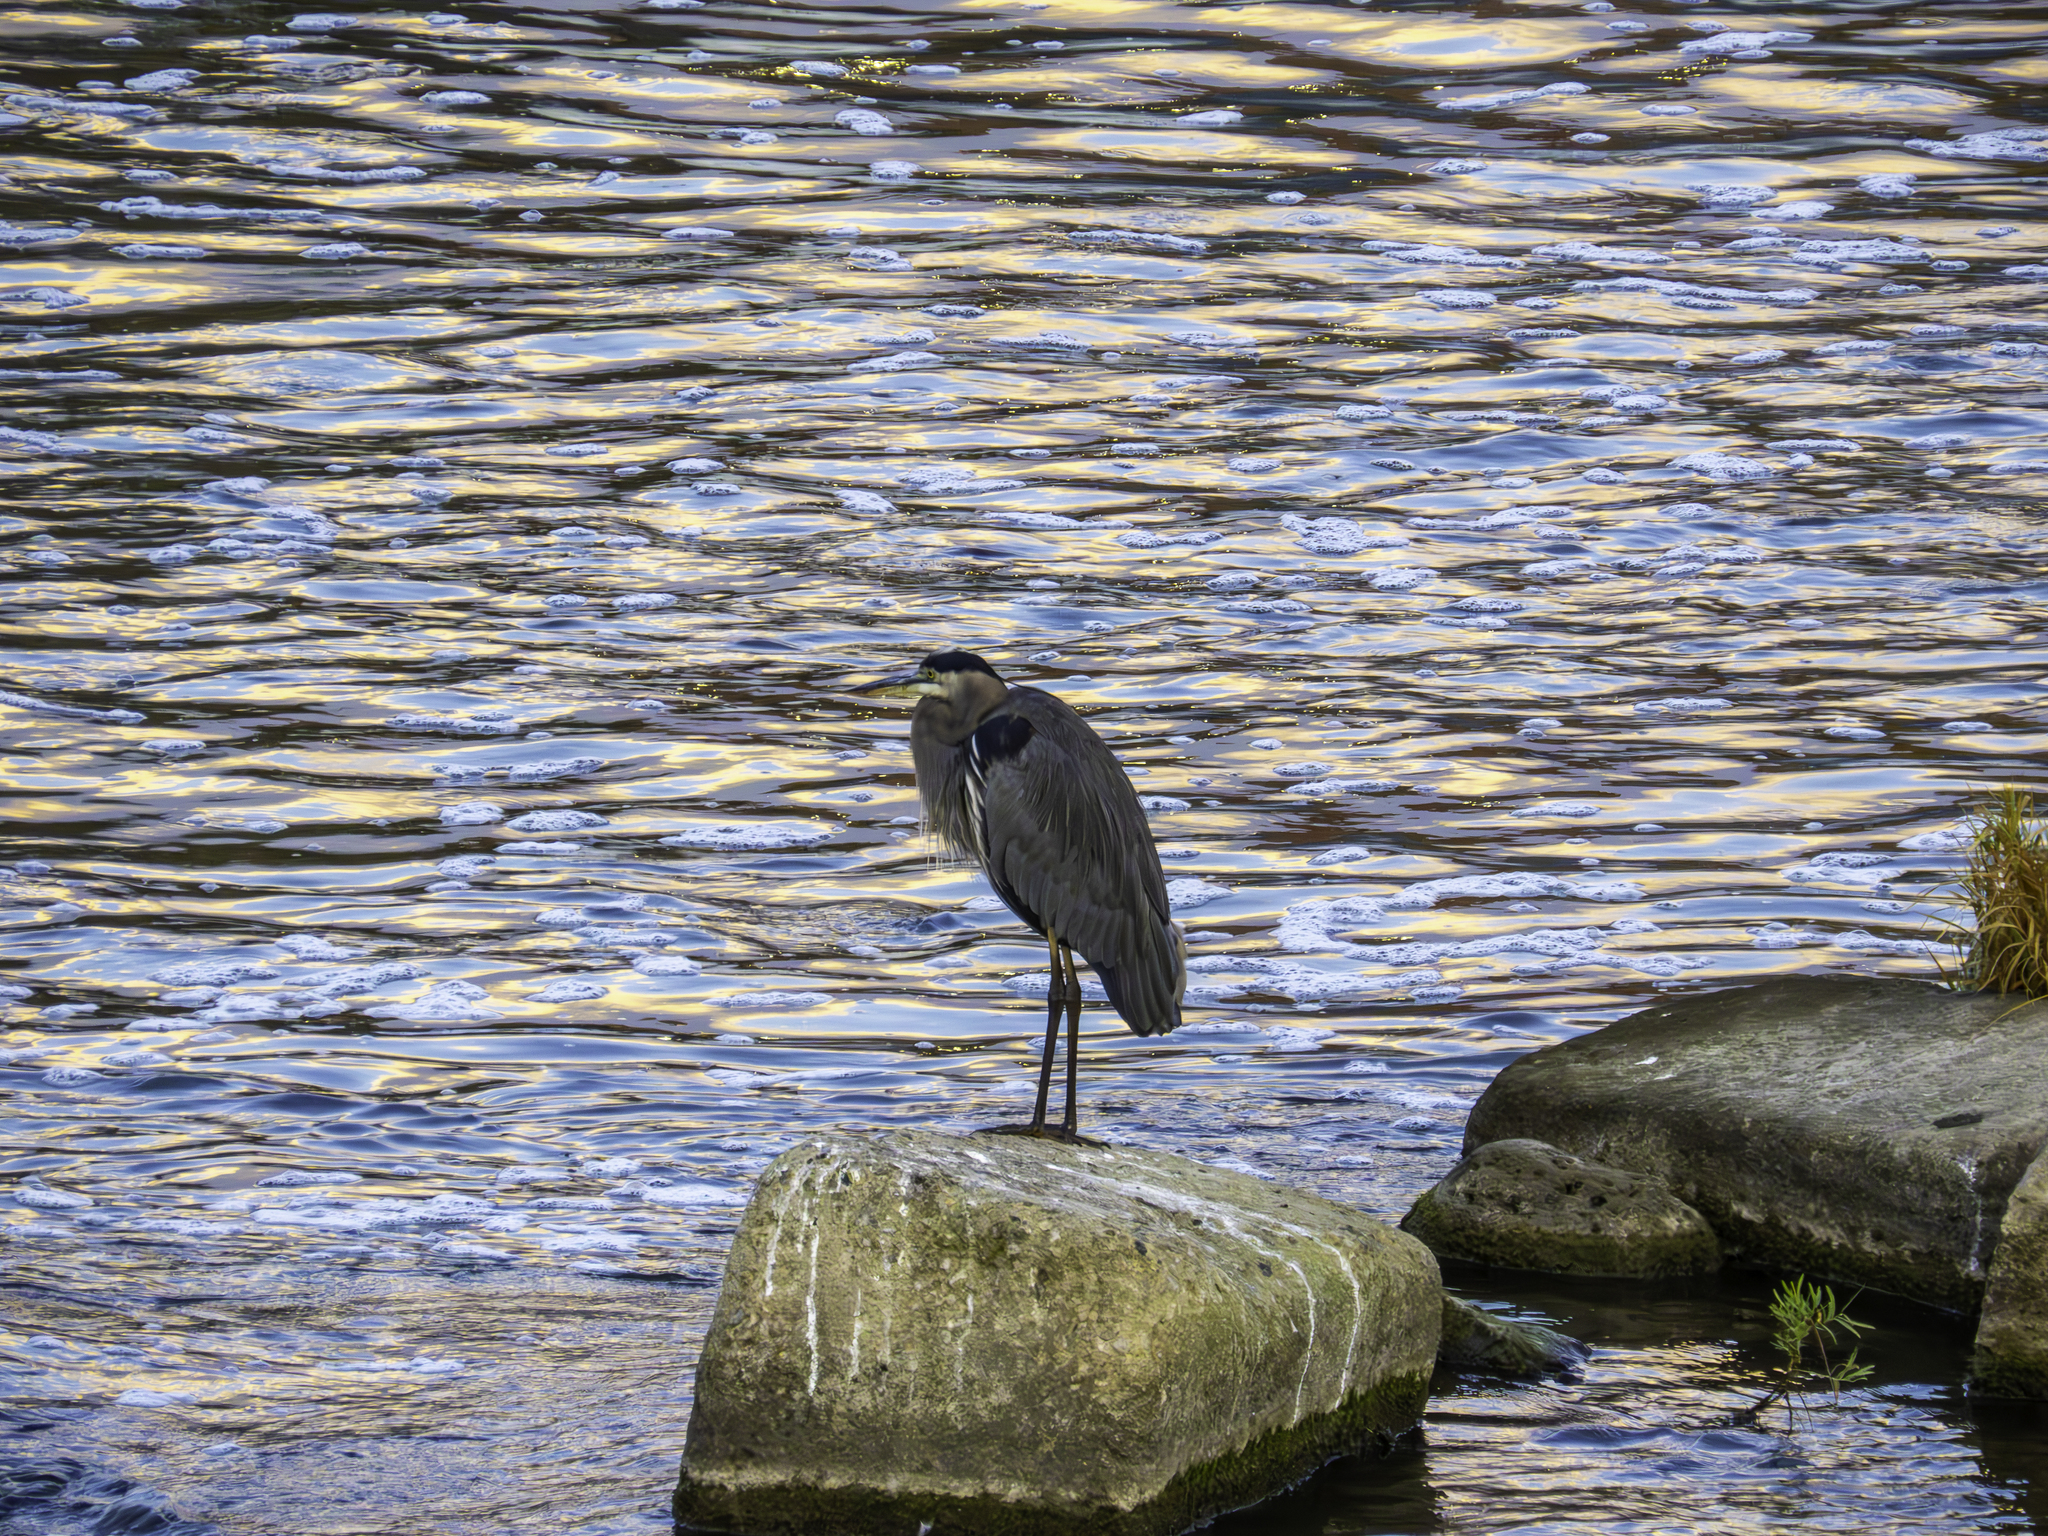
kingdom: Animalia
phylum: Chordata
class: Aves
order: Pelecaniformes
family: Ardeidae
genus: Ardea
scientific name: Ardea herodias
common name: Great blue heron
